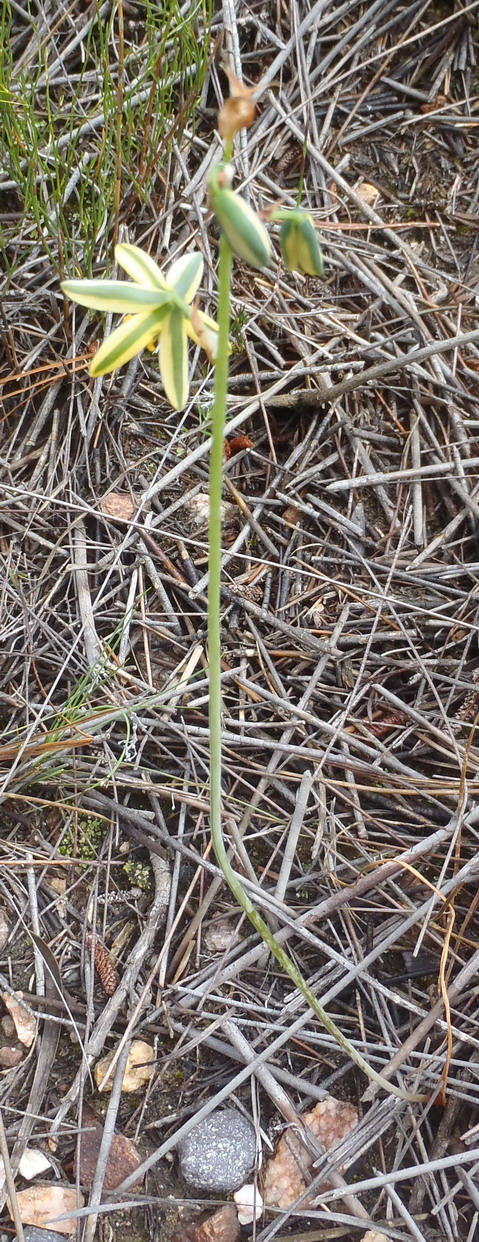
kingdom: Plantae
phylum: Tracheophyta
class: Liliopsida
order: Asparagales
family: Asparagaceae
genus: Albuca
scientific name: Albuca suaveolens
